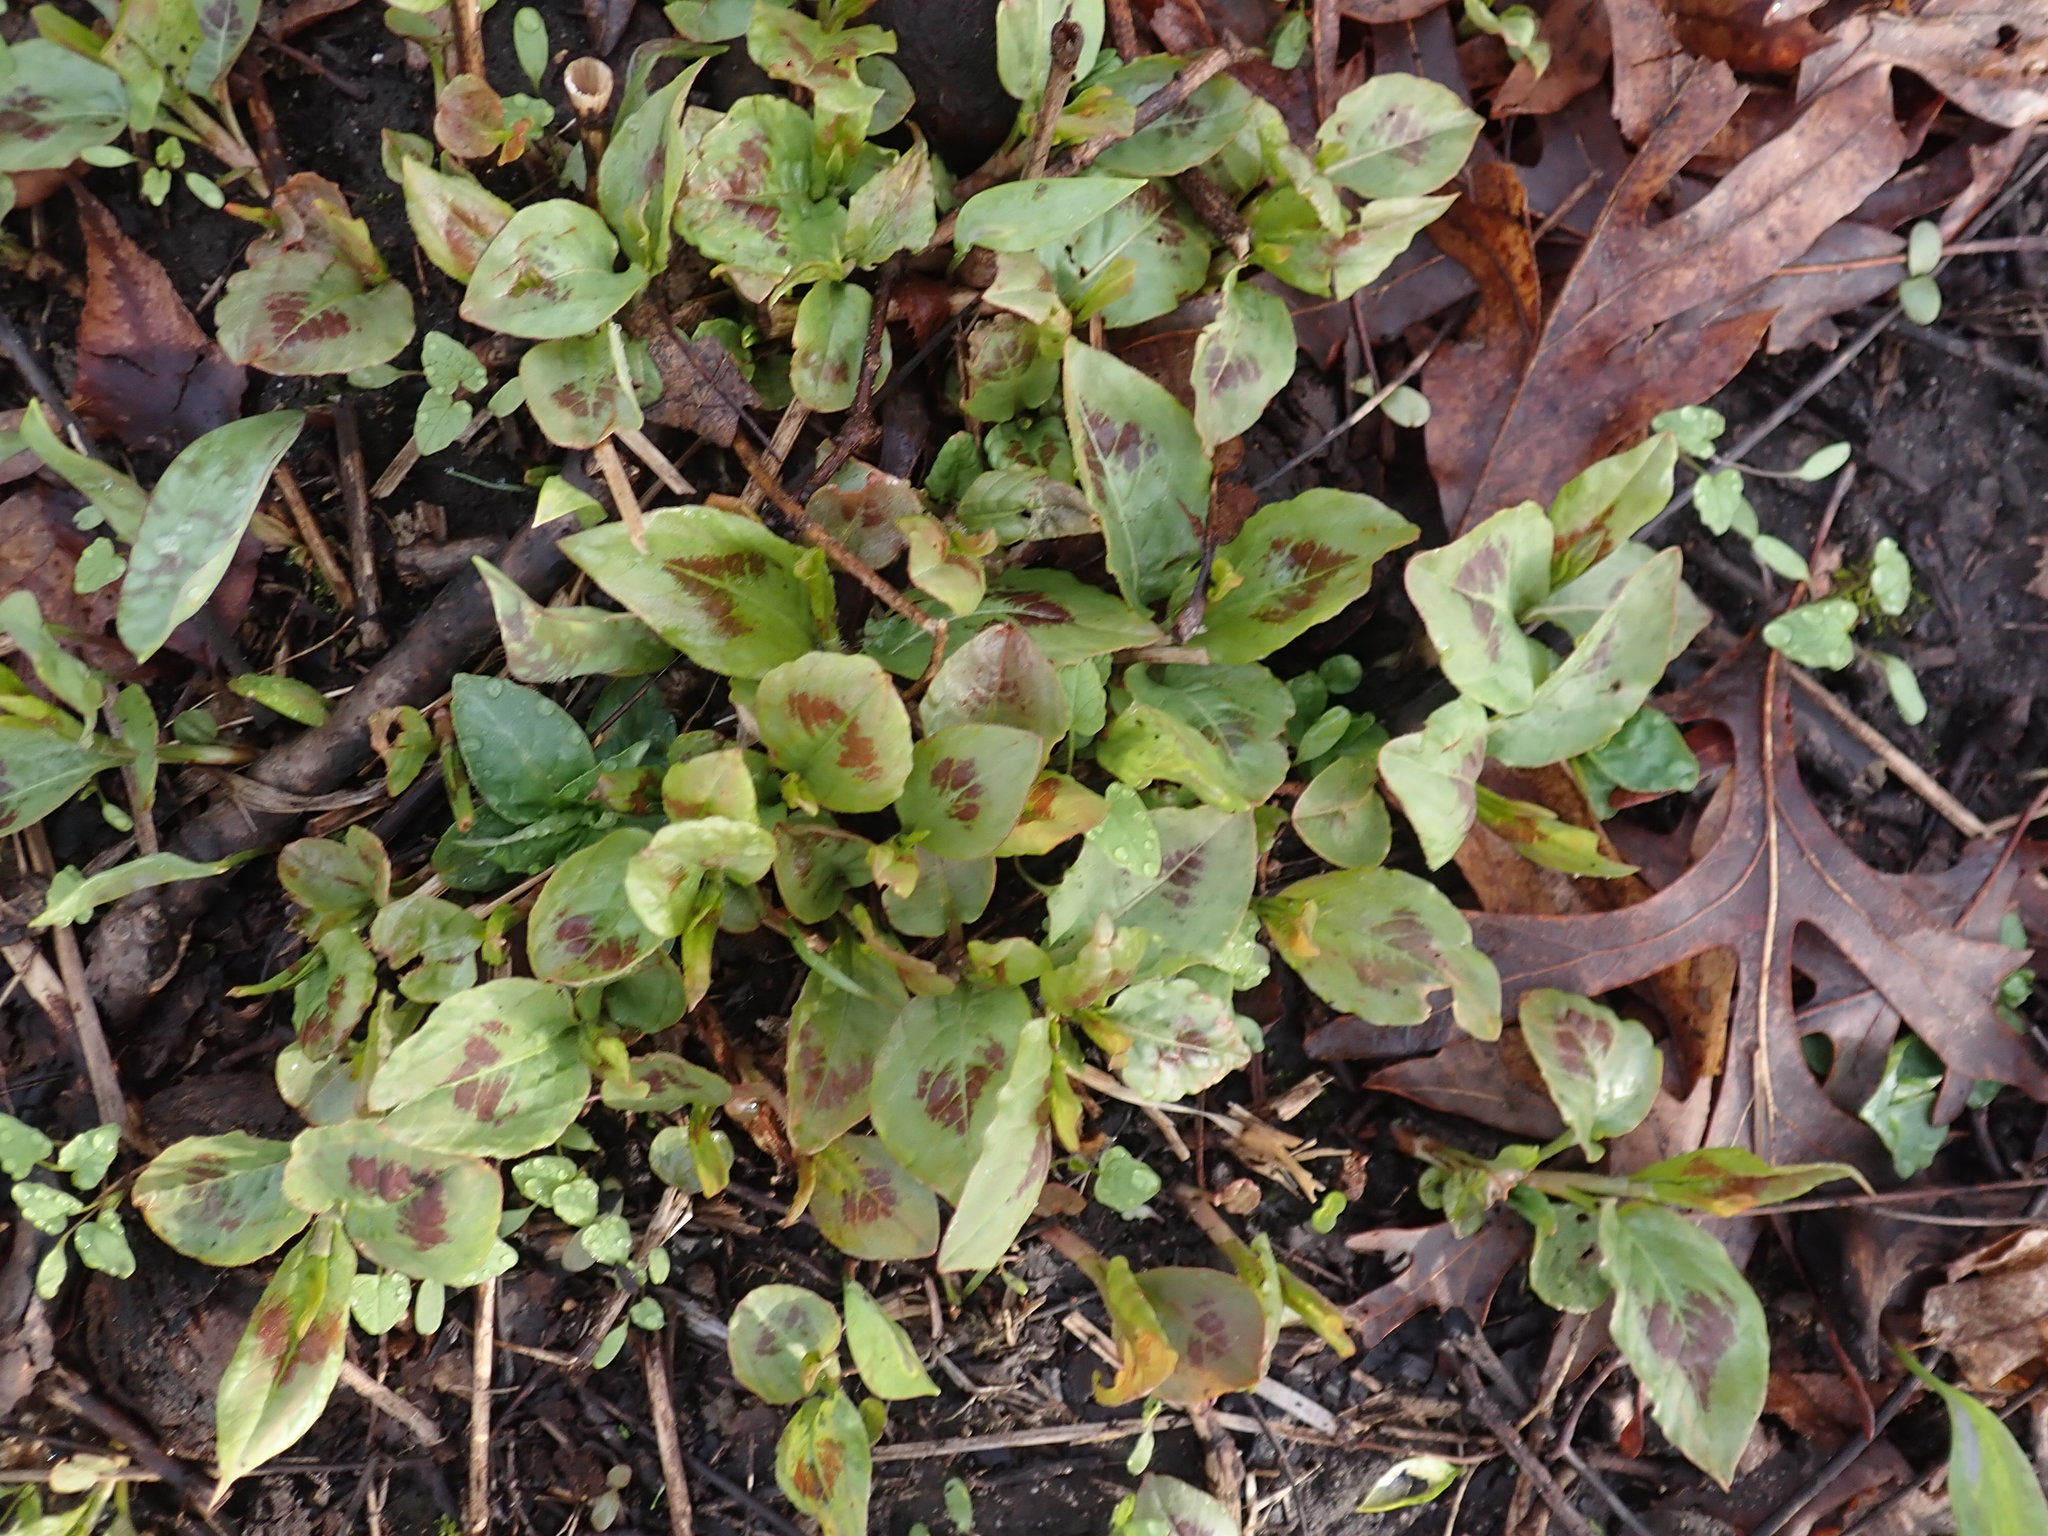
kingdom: Plantae
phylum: Tracheophyta
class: Magnoliopsida
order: Caryophyllales
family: Polygonaceae
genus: Persicaria
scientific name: Persicaria virginiana
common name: Jumpseed
